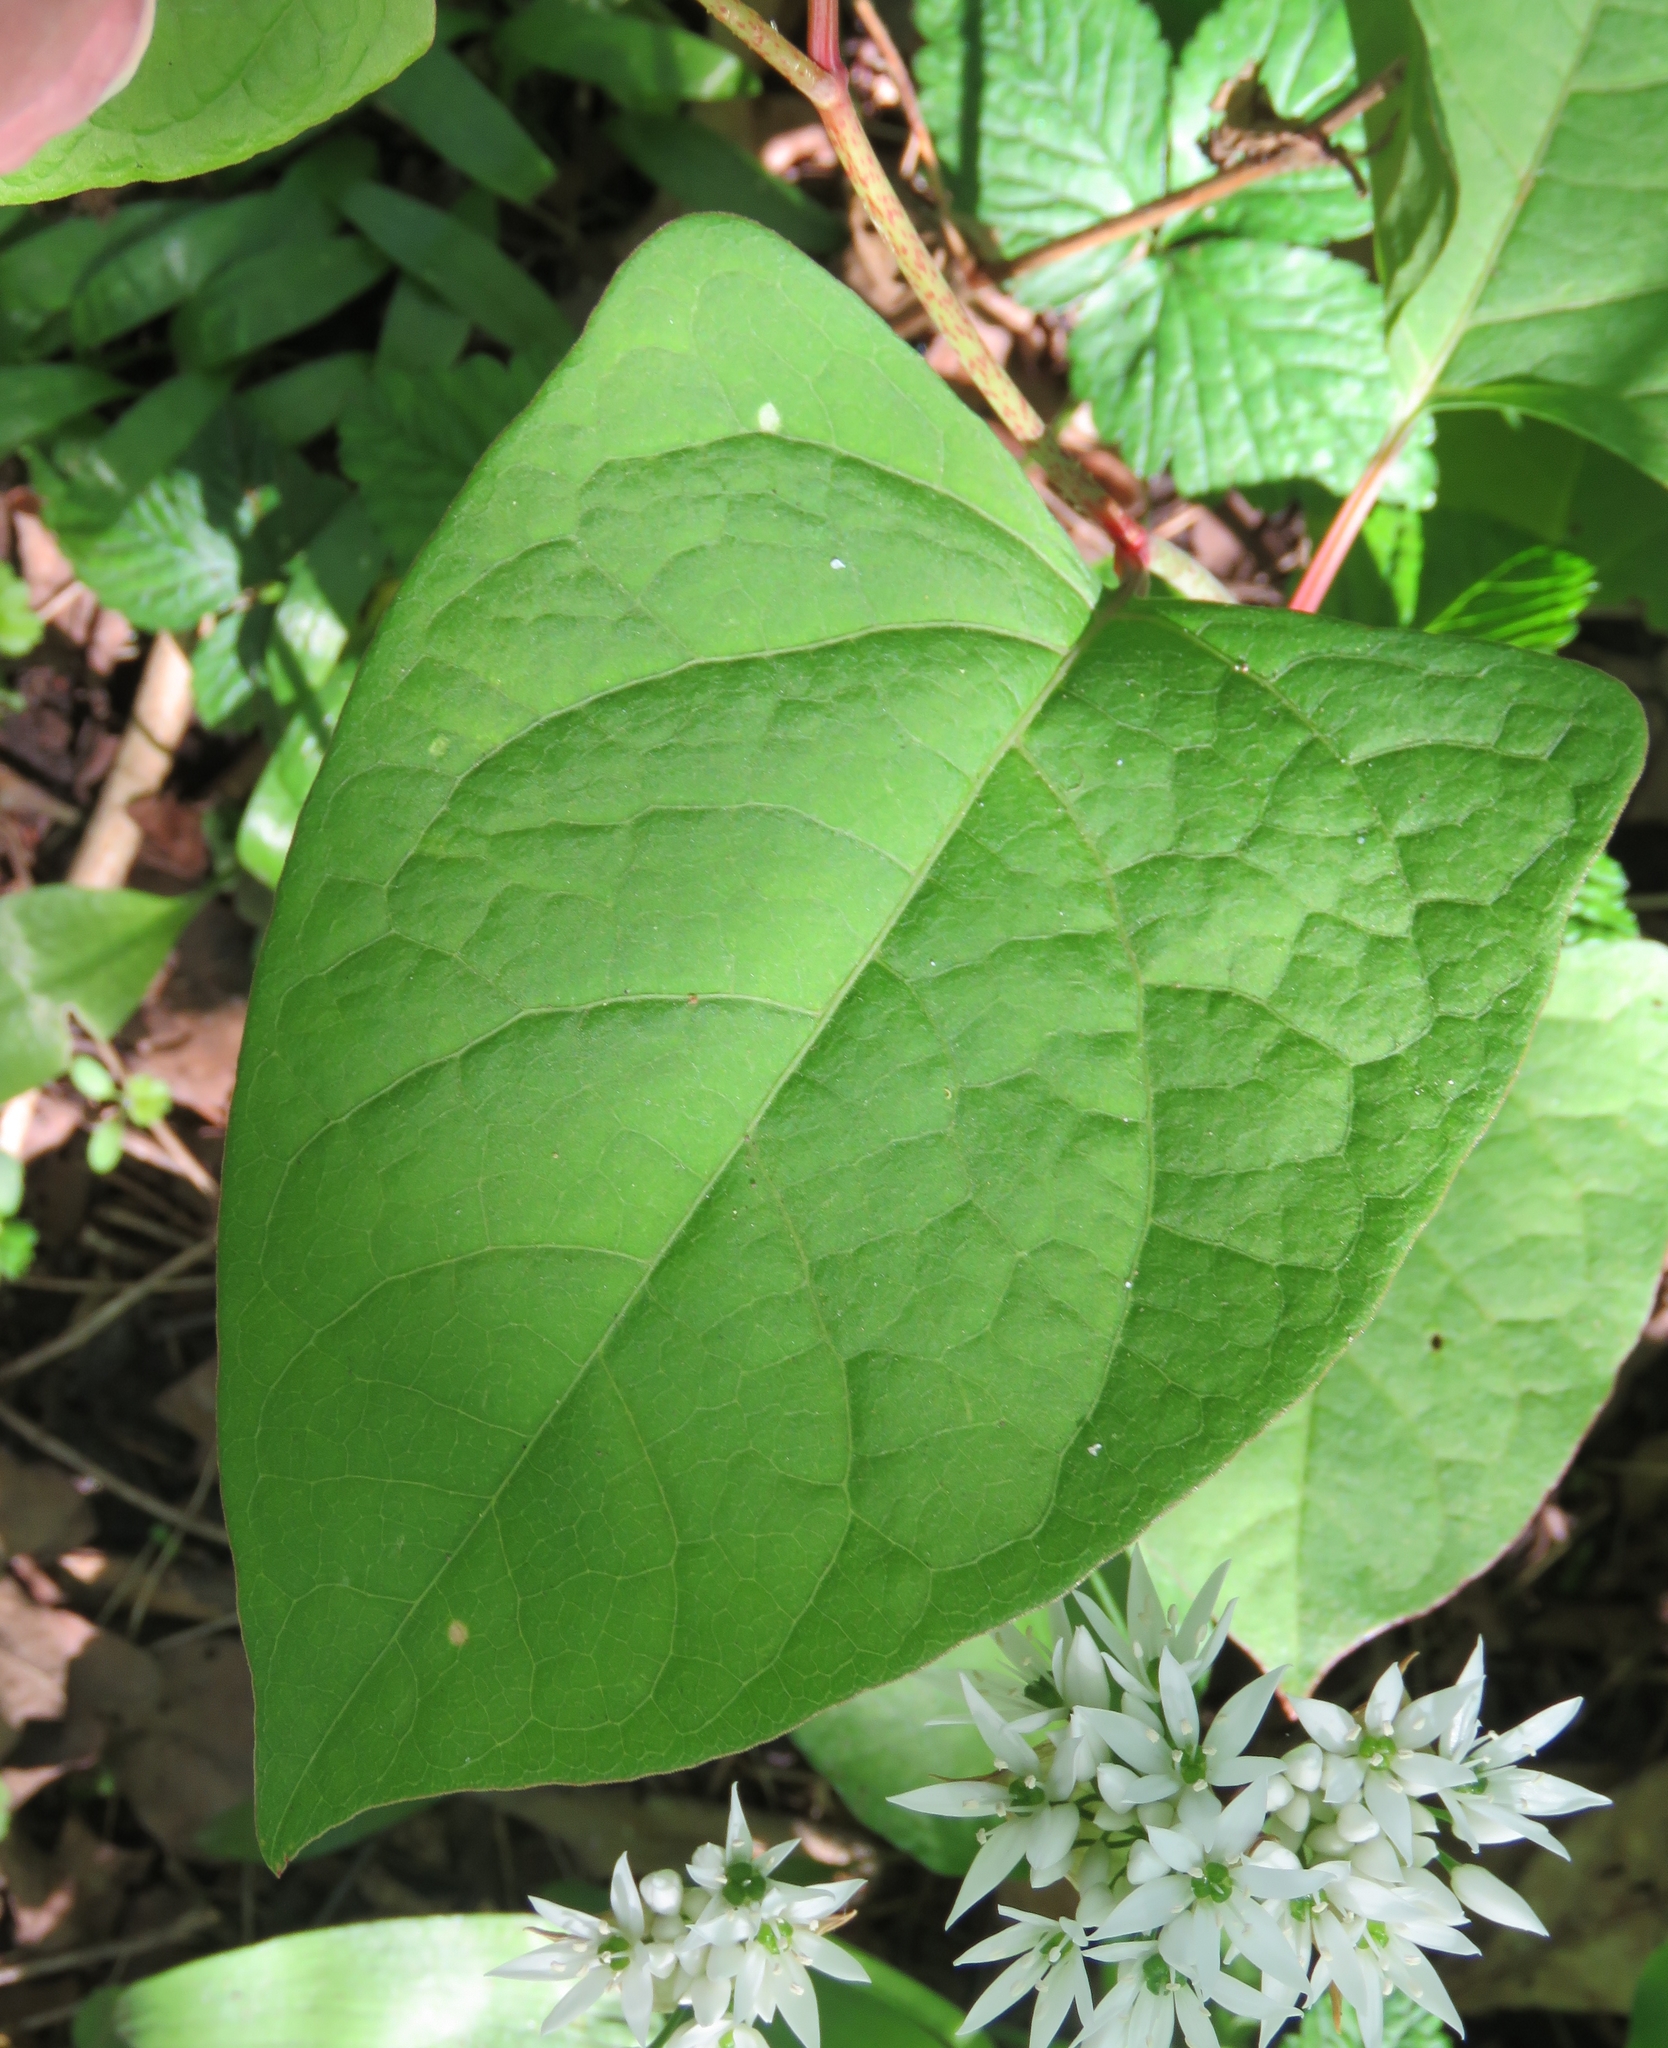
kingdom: Plantae
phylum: Tracheophyta
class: Magnoliopsida
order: Caryophyllales
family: Polygonaceae
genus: Reynoutria
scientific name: Reynoutria japonica
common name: Japanese knotweed
